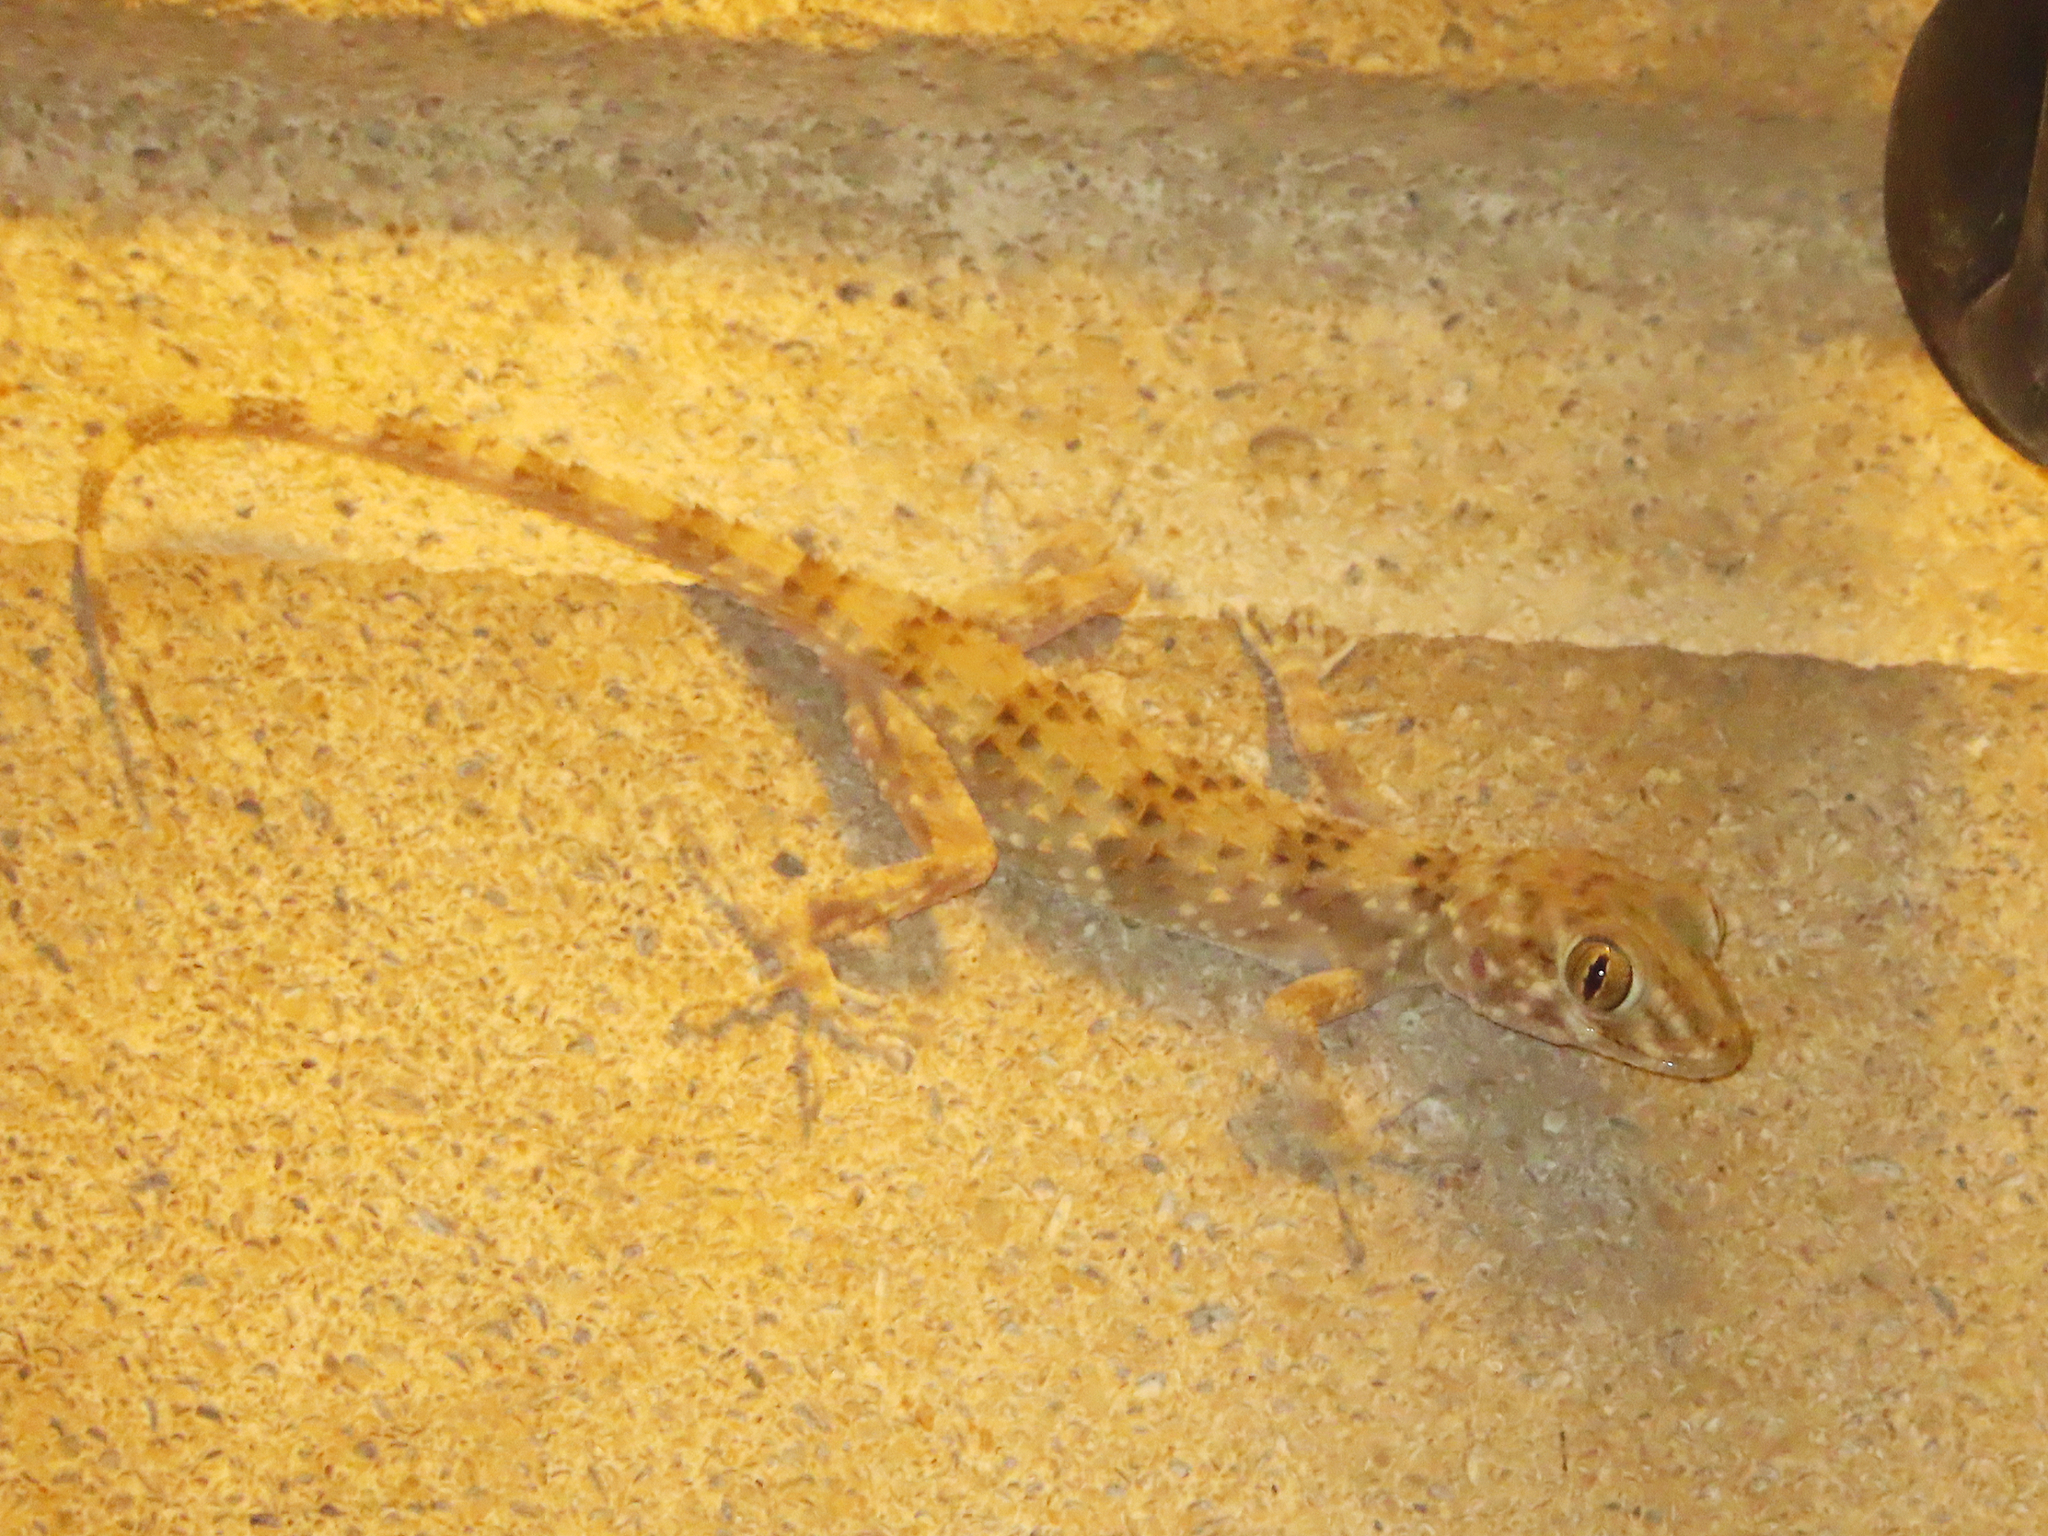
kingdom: Animalia
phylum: Chordata
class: Squamata
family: Gekkonidae
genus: Tenuidactylus
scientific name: Tenuidactylus caspius
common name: Caspian bent-toed gecko
